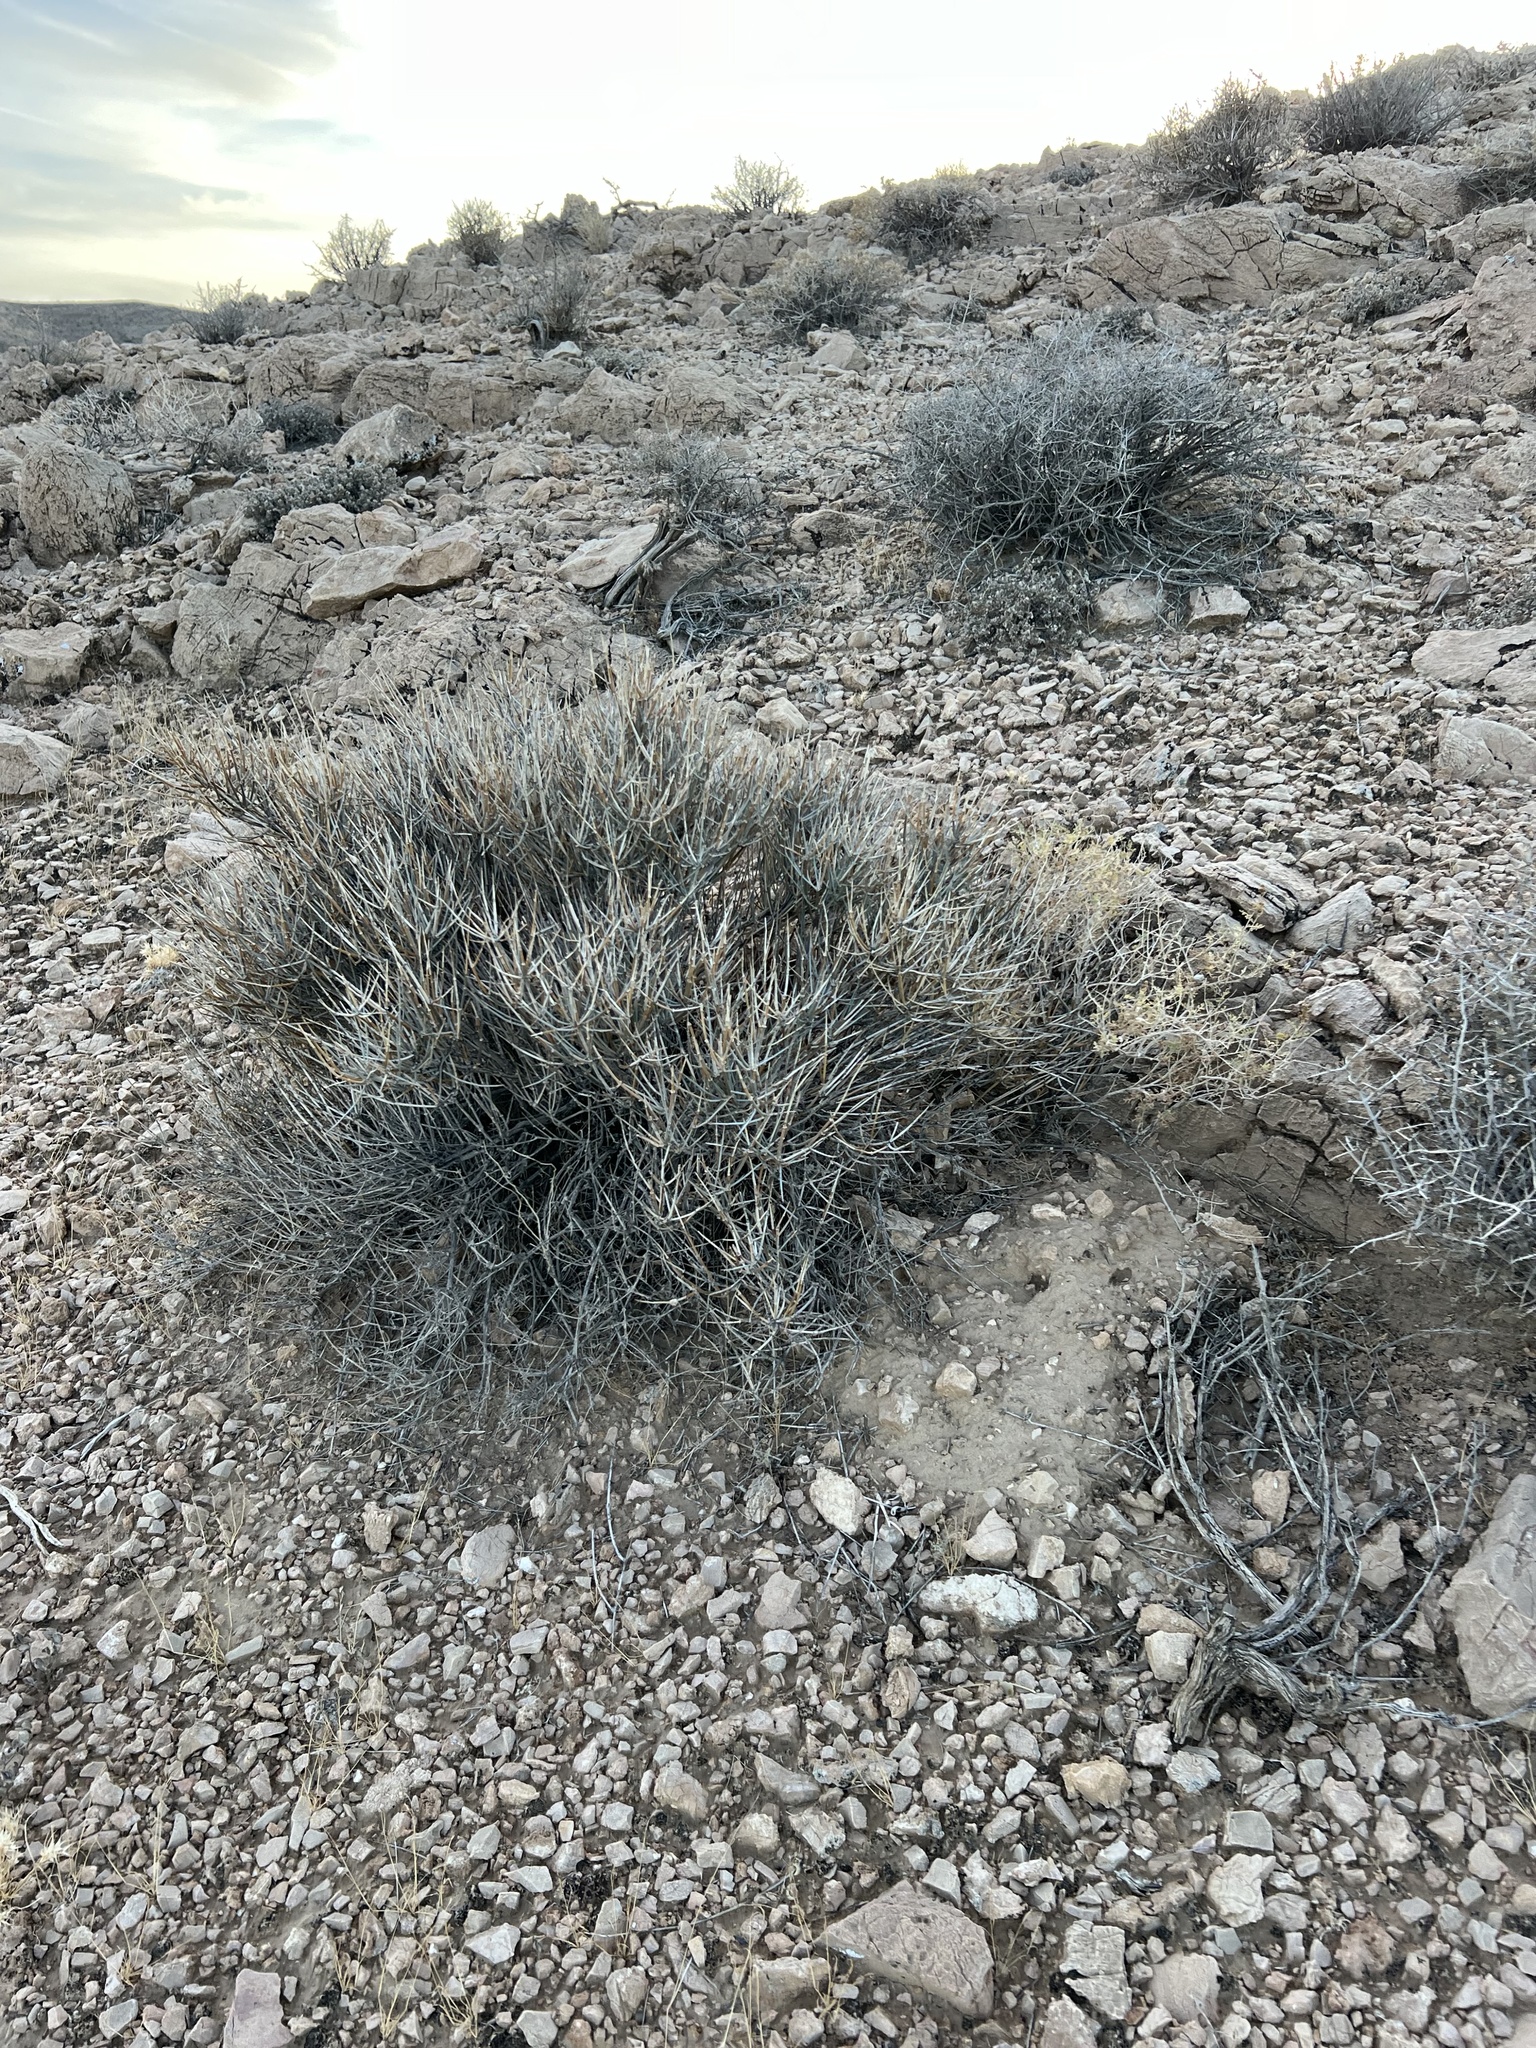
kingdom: Plantae
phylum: Tracheophyta
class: Gnetopsida
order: Ephedrales
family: Ephedraceae
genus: Ephedra
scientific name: Ephedra nevadensis
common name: Gray ephedra
